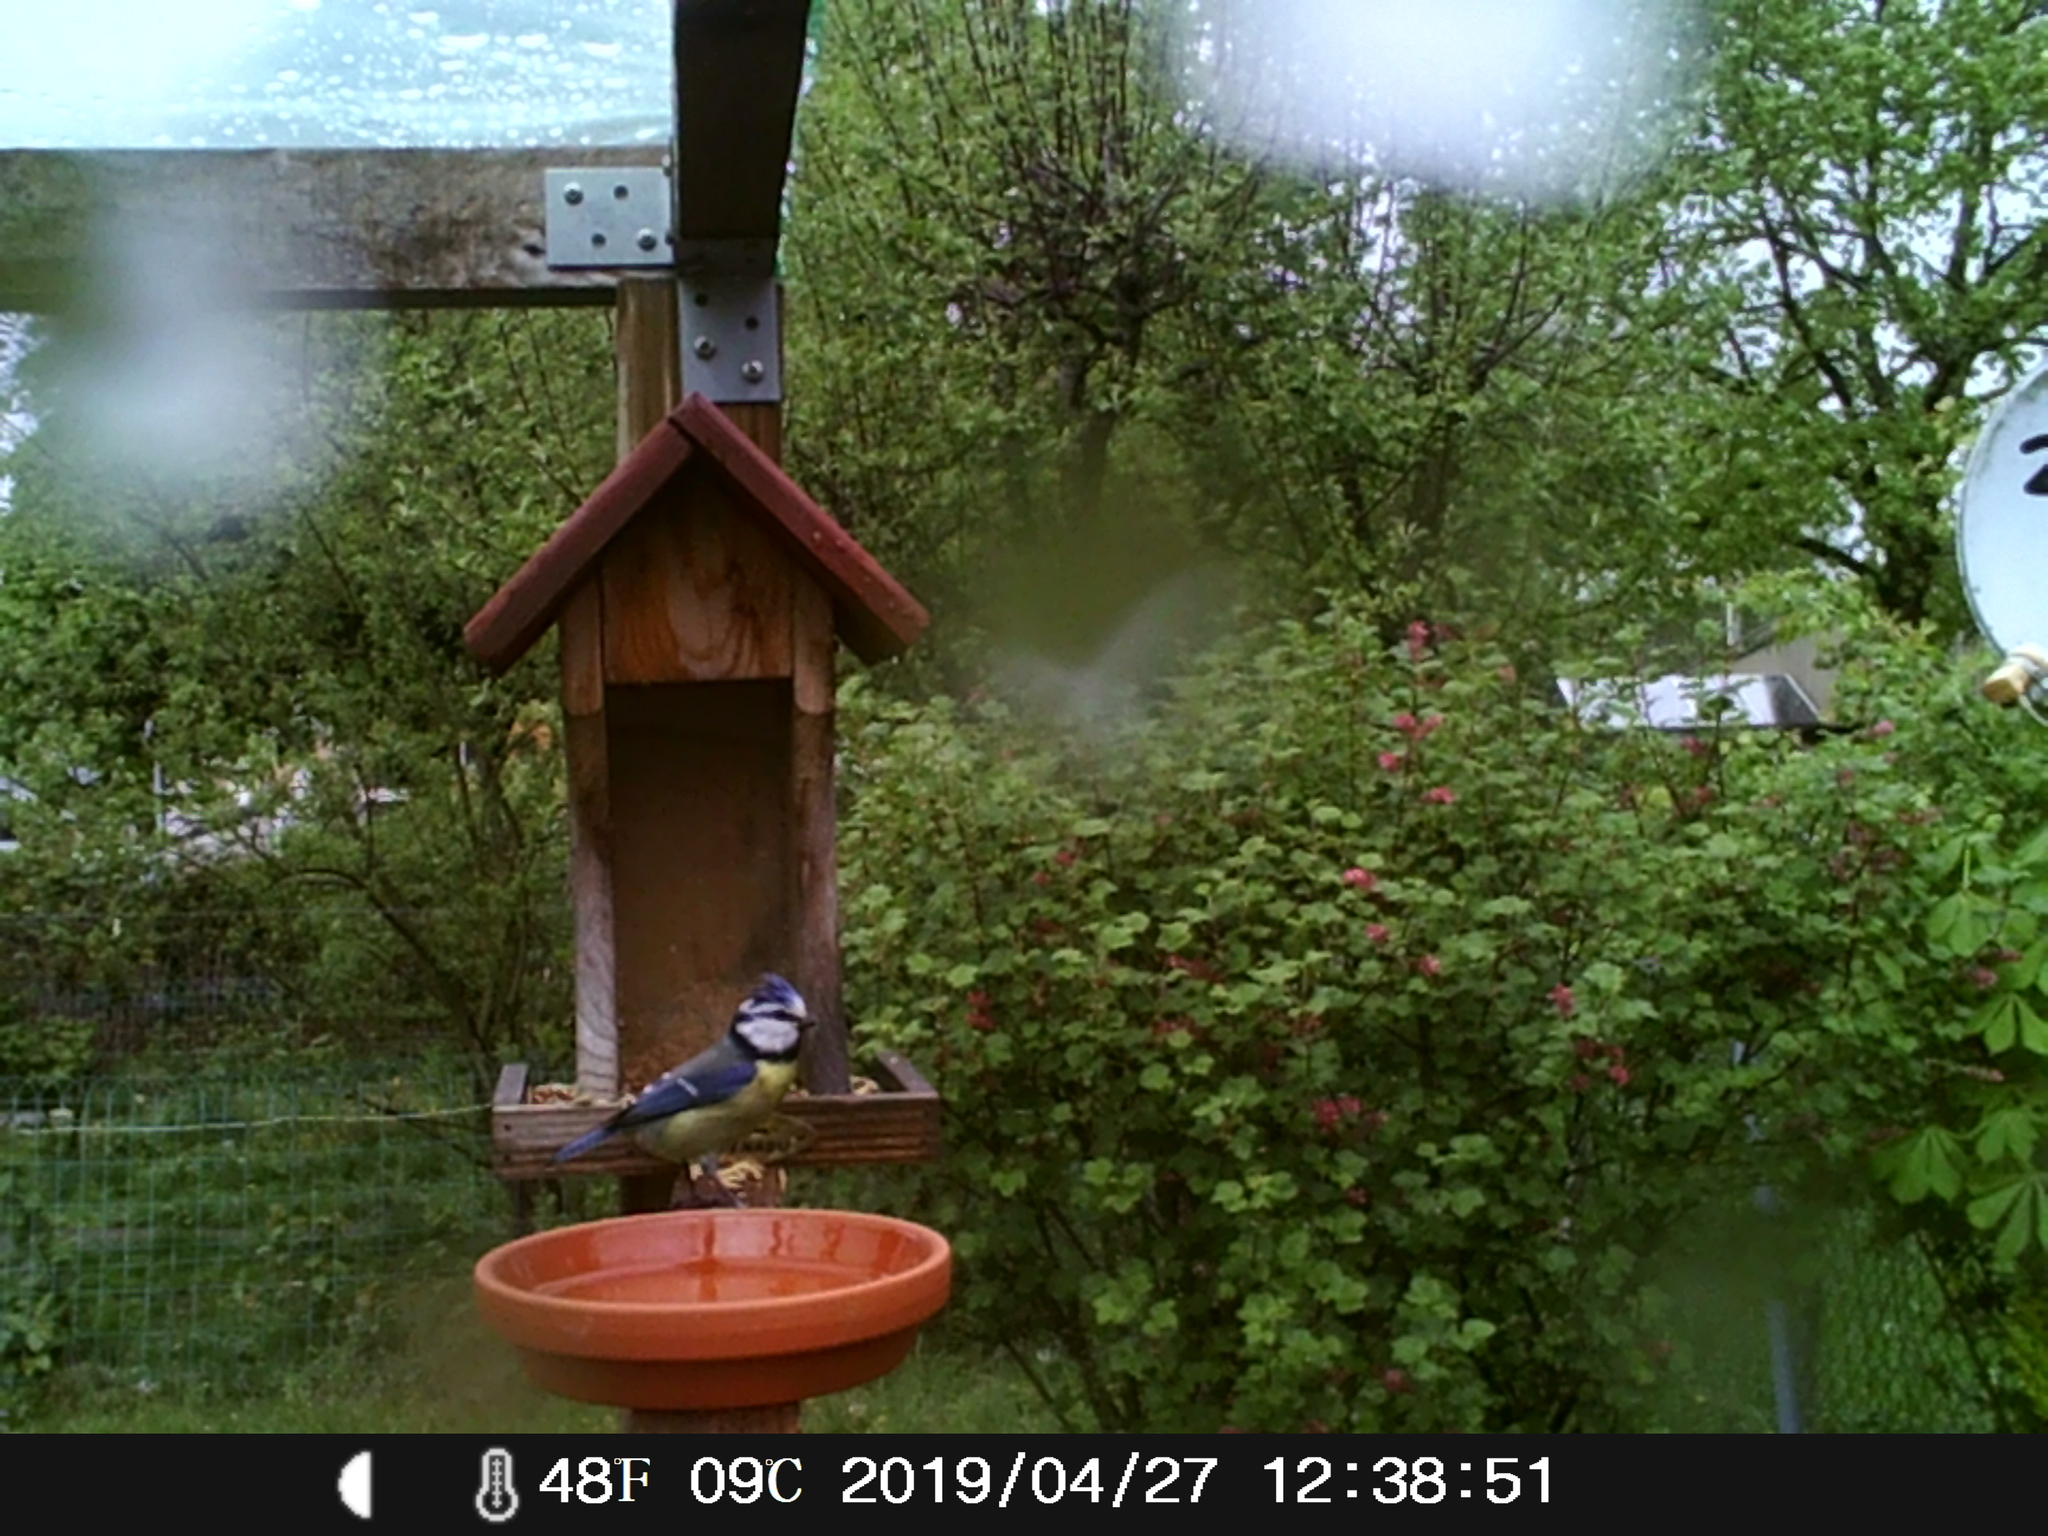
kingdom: Animalia
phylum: Chordata
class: Aves
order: Passeriformes
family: Paridae
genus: Cyanistes
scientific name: Cyanistes caeruleus
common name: Eurasian blue tit
